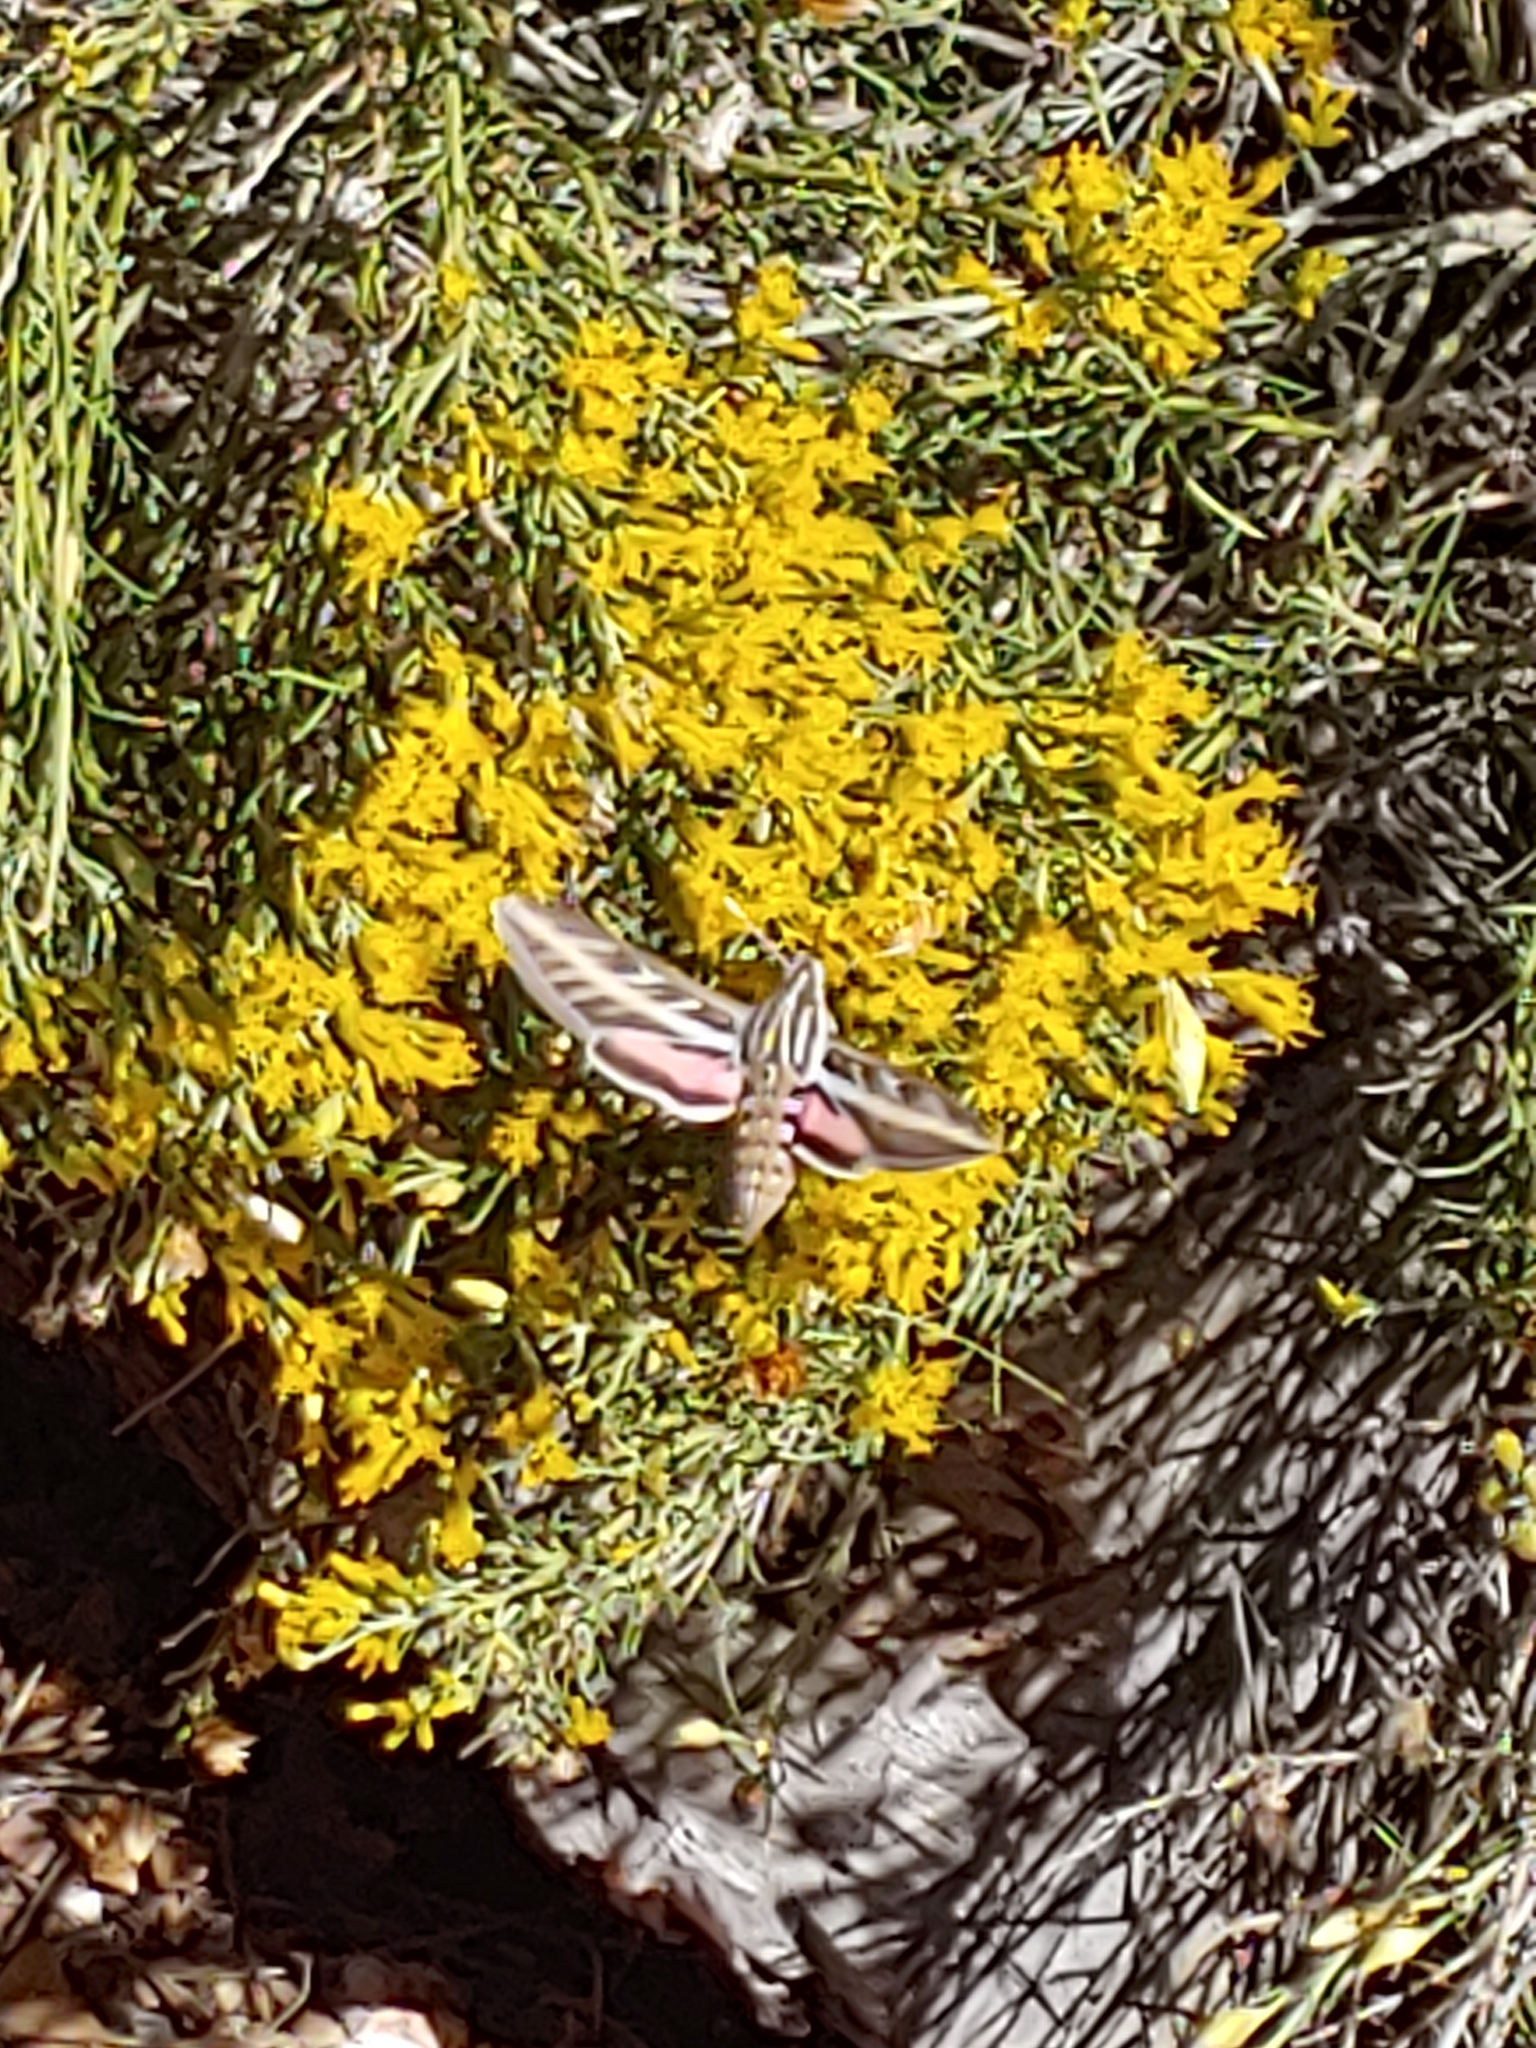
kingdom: Animalia
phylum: Arthropoda
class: Insecta
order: Lepidoptera
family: Sphingidae
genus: Hyles
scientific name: Hyles lineata
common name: White-lined sphinx
